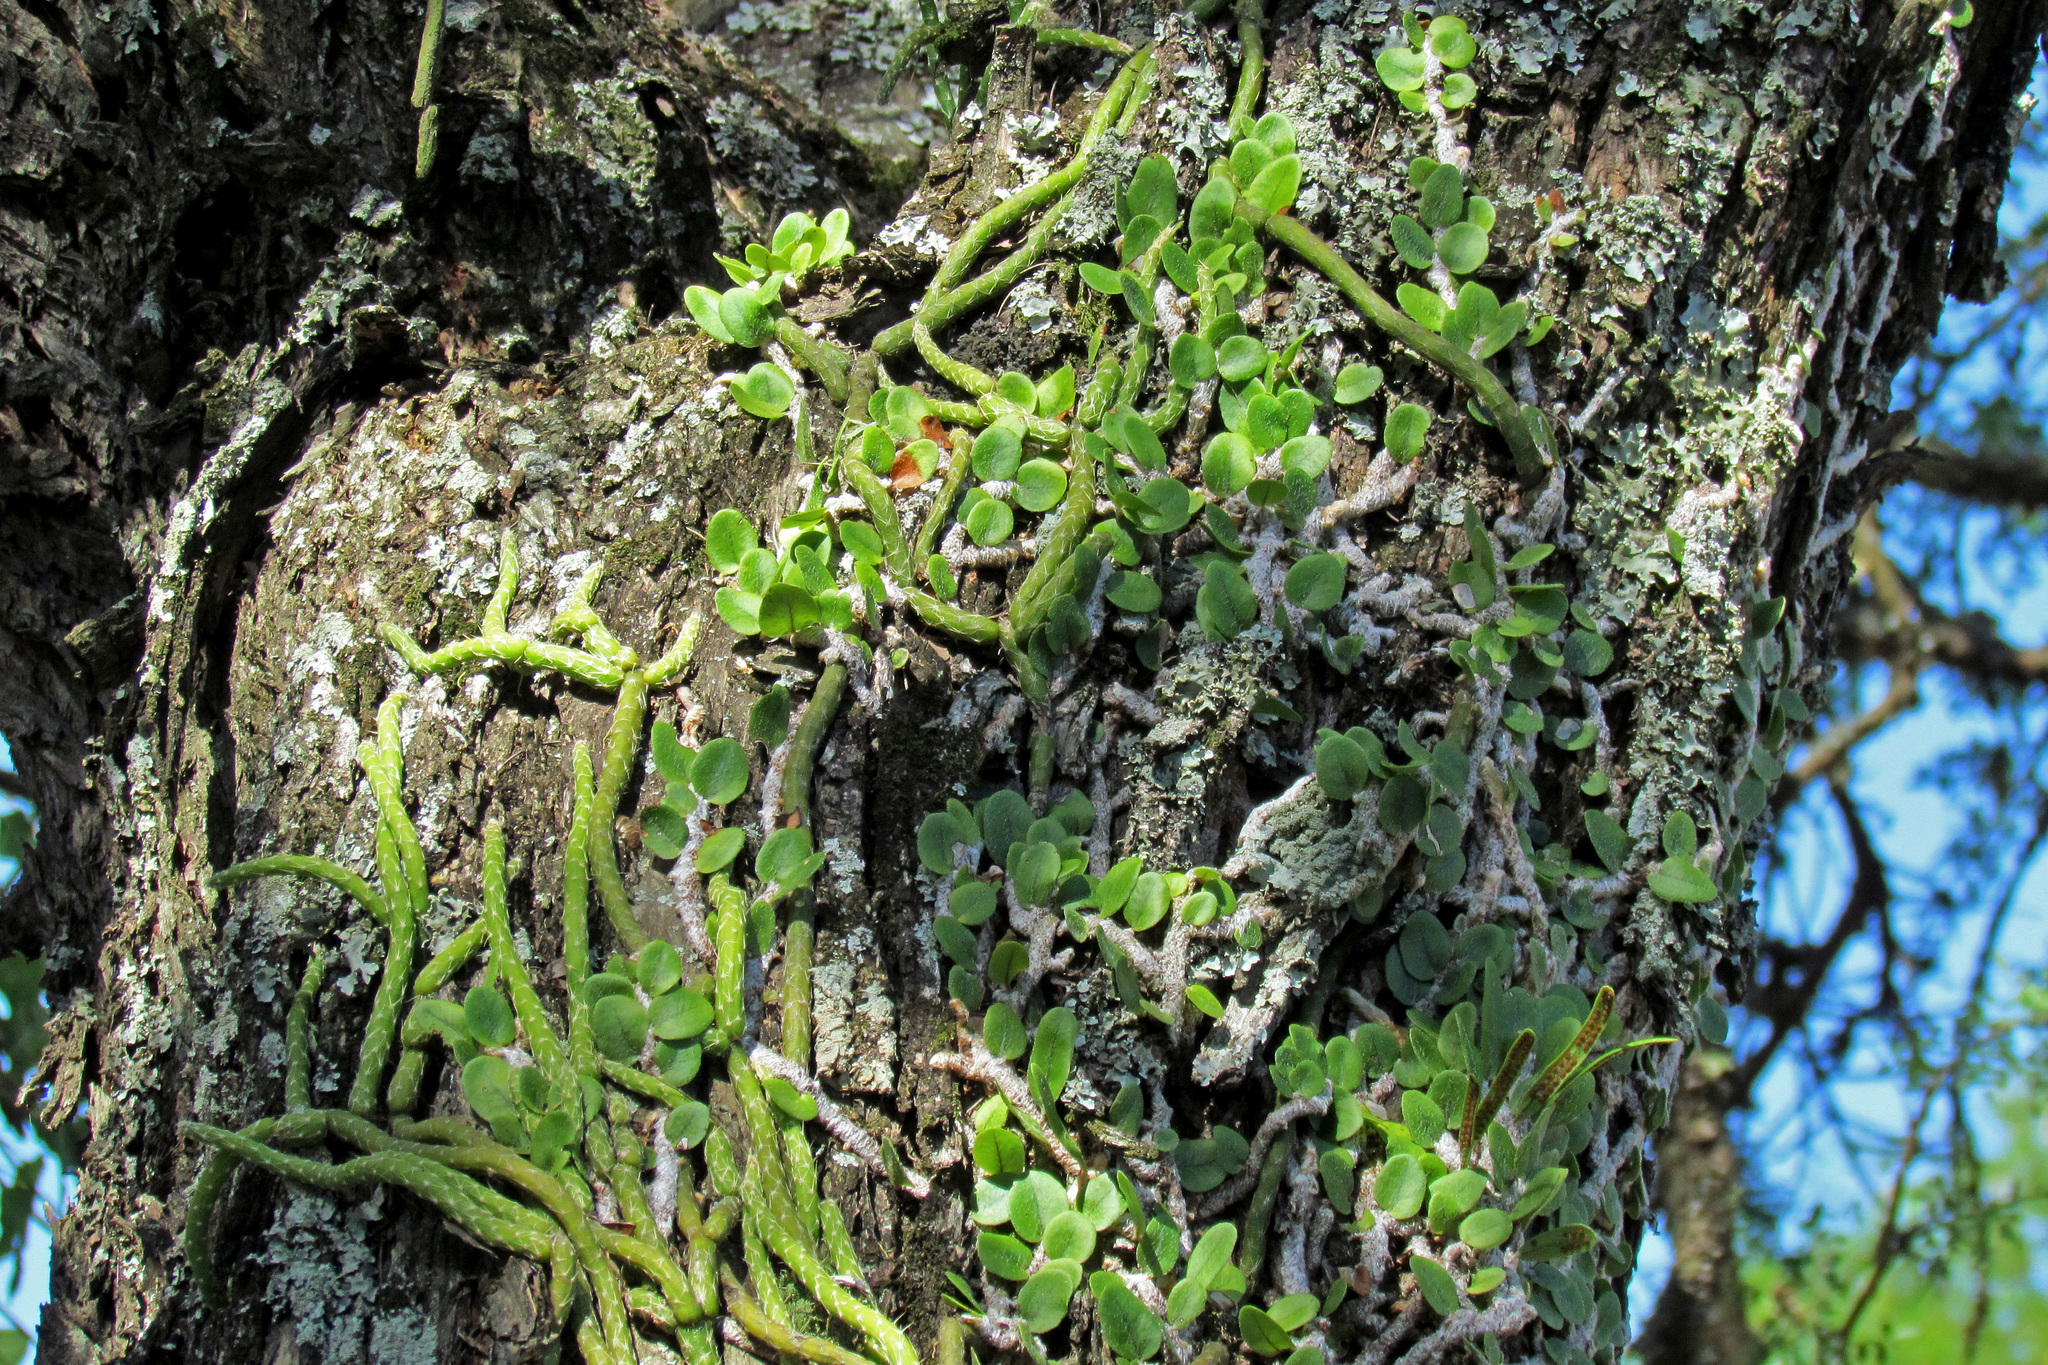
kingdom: Plantae
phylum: Tracheophyta
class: Magnoliopsida
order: Caryophyllales
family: Cactaceae
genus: Lepismium
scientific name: Lepismium lumbricoides
